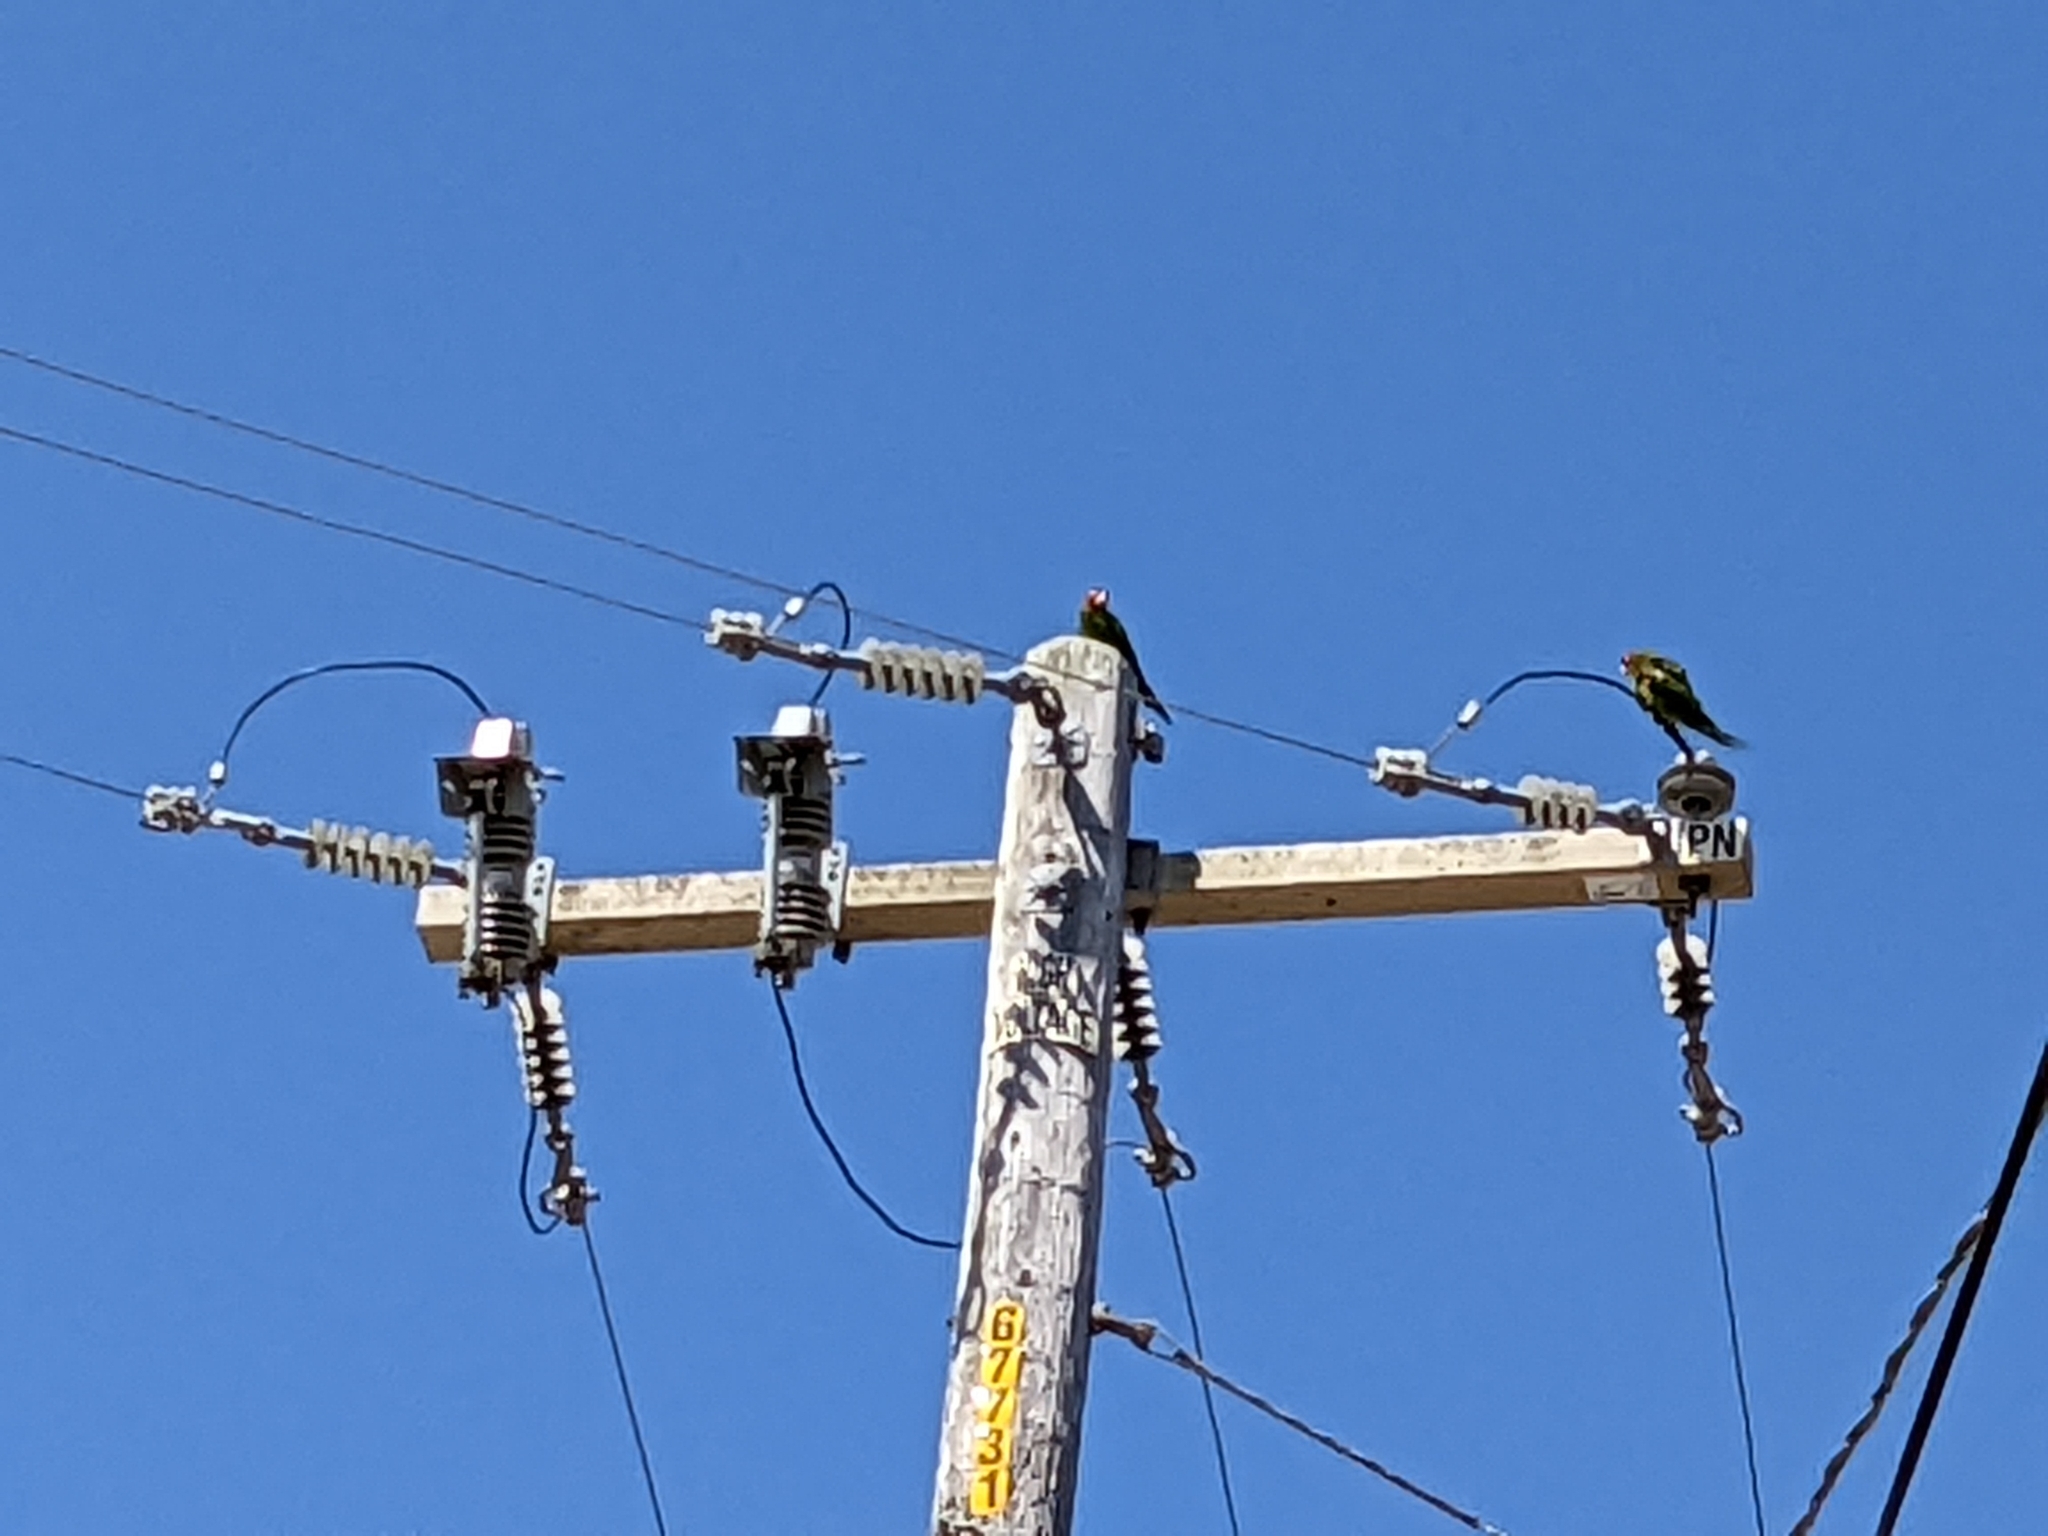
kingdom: Animalia
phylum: Chordata
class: Aves
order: Psittaciformes
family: Psittacidae
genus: Aratinga
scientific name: Aratinga erythrogenys
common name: Red-masked parakeet
